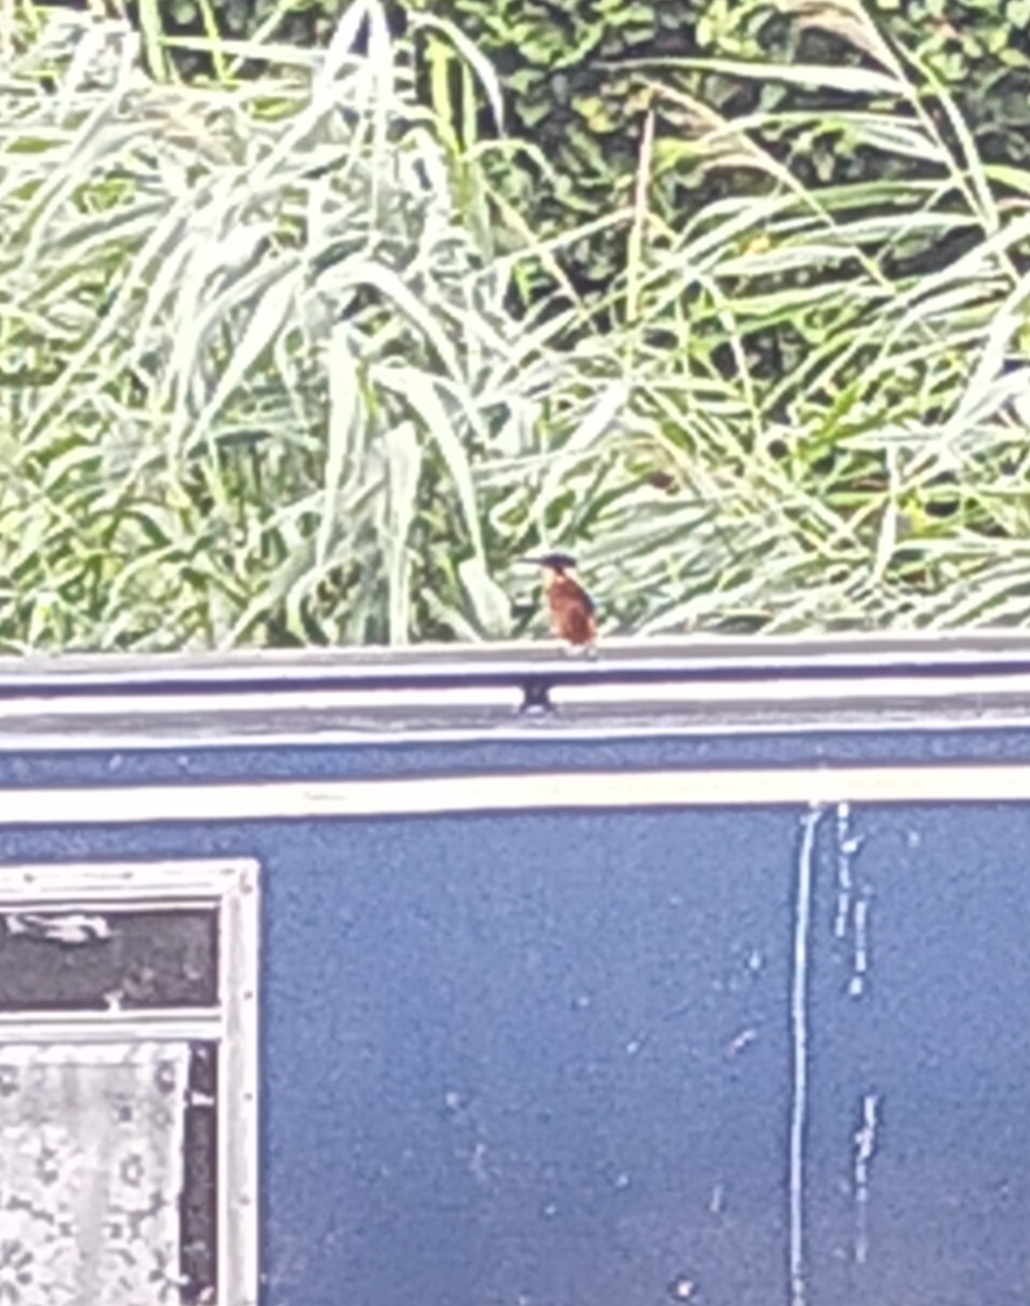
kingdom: Animalia
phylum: Chordata
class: Aves
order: Coraciiformes
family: Alcedinidae
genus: Alcedo
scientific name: Alcedo atthis
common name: Common kingfisher
